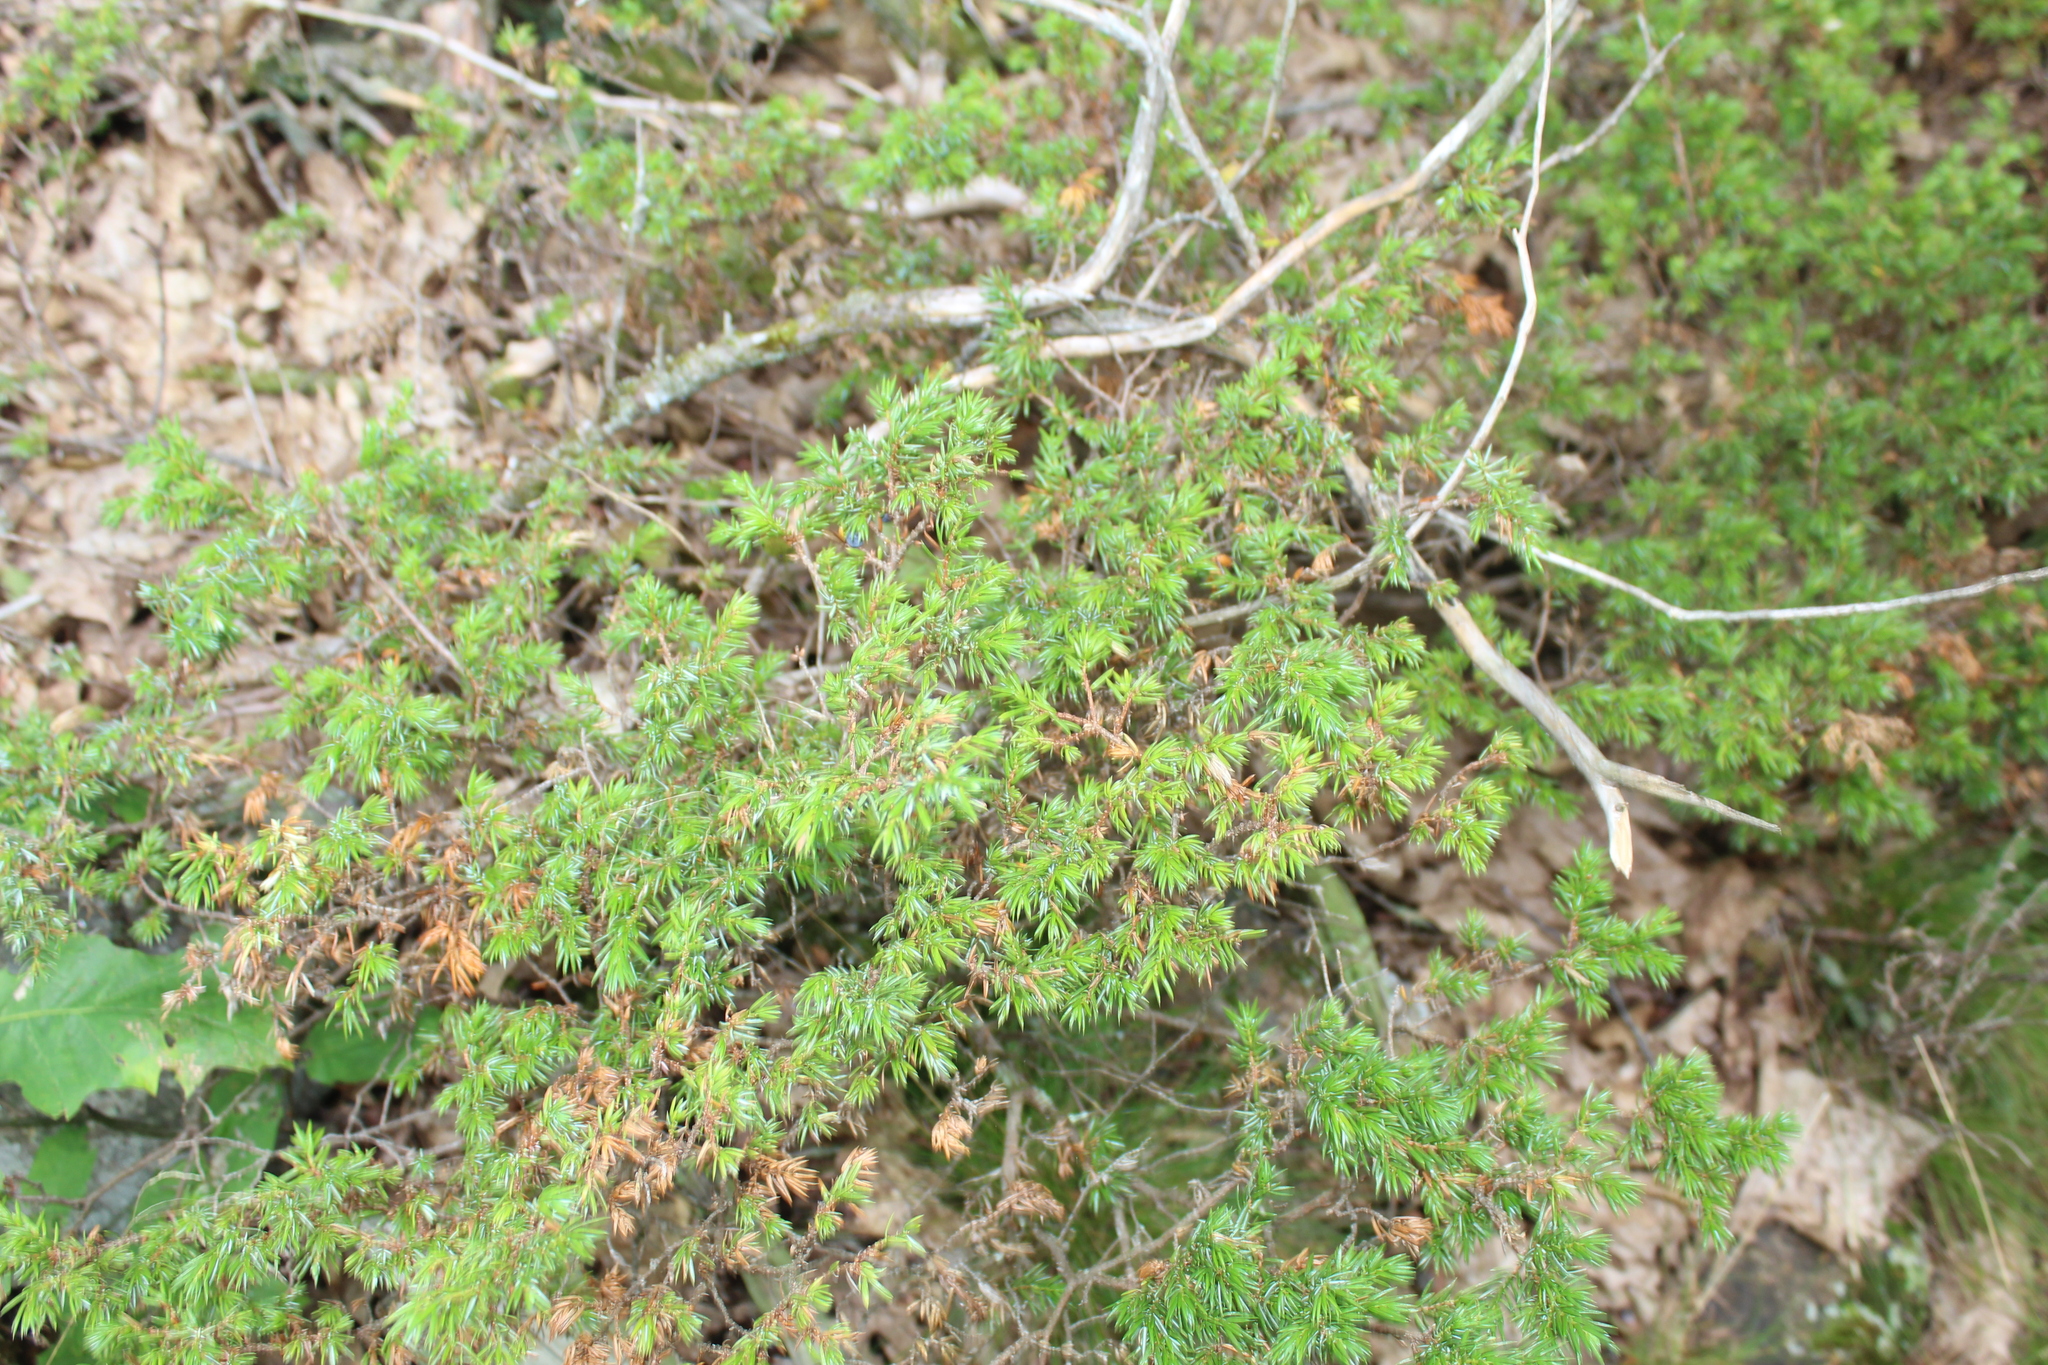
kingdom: Plantae
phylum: Tracheophyta
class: Pinopsida
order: Pinales
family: Cupressaceae
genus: Juniperus
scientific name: Juniperus communis
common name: Common juniper
